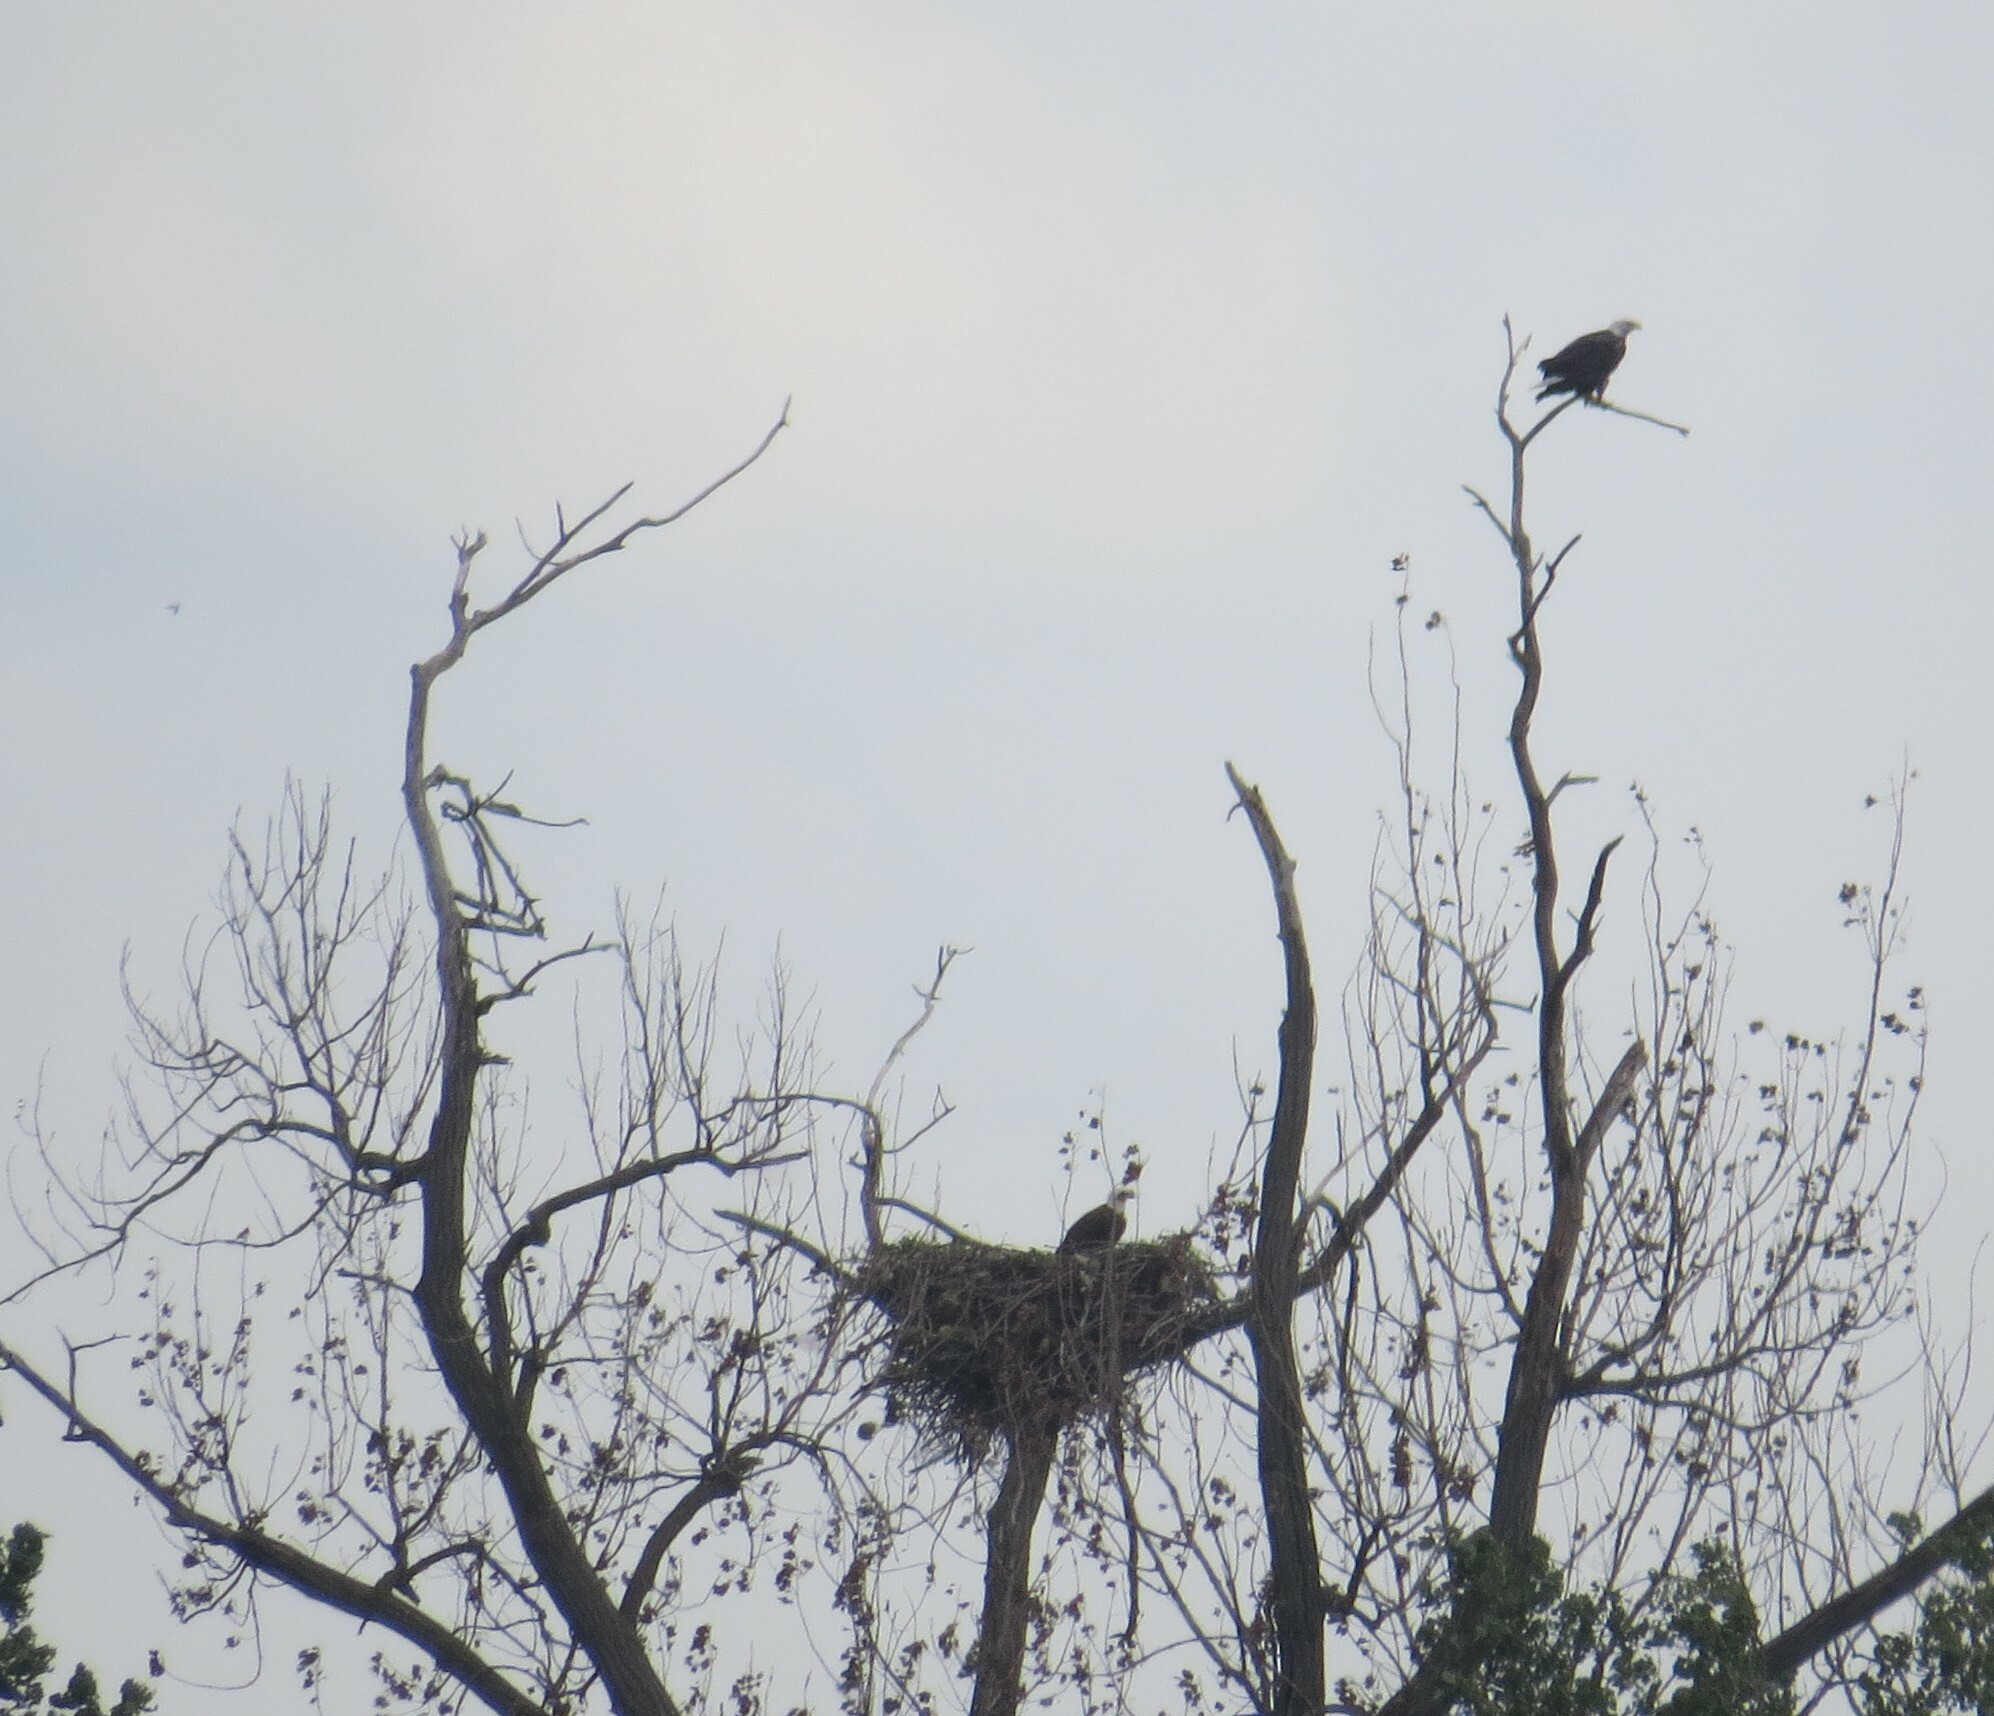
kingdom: Animalia
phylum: Chordata
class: Aves
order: Accipitriformes
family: Accipitridae
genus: Haliaeetus
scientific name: Haliaeetus leucocephalus
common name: Bald eagle
